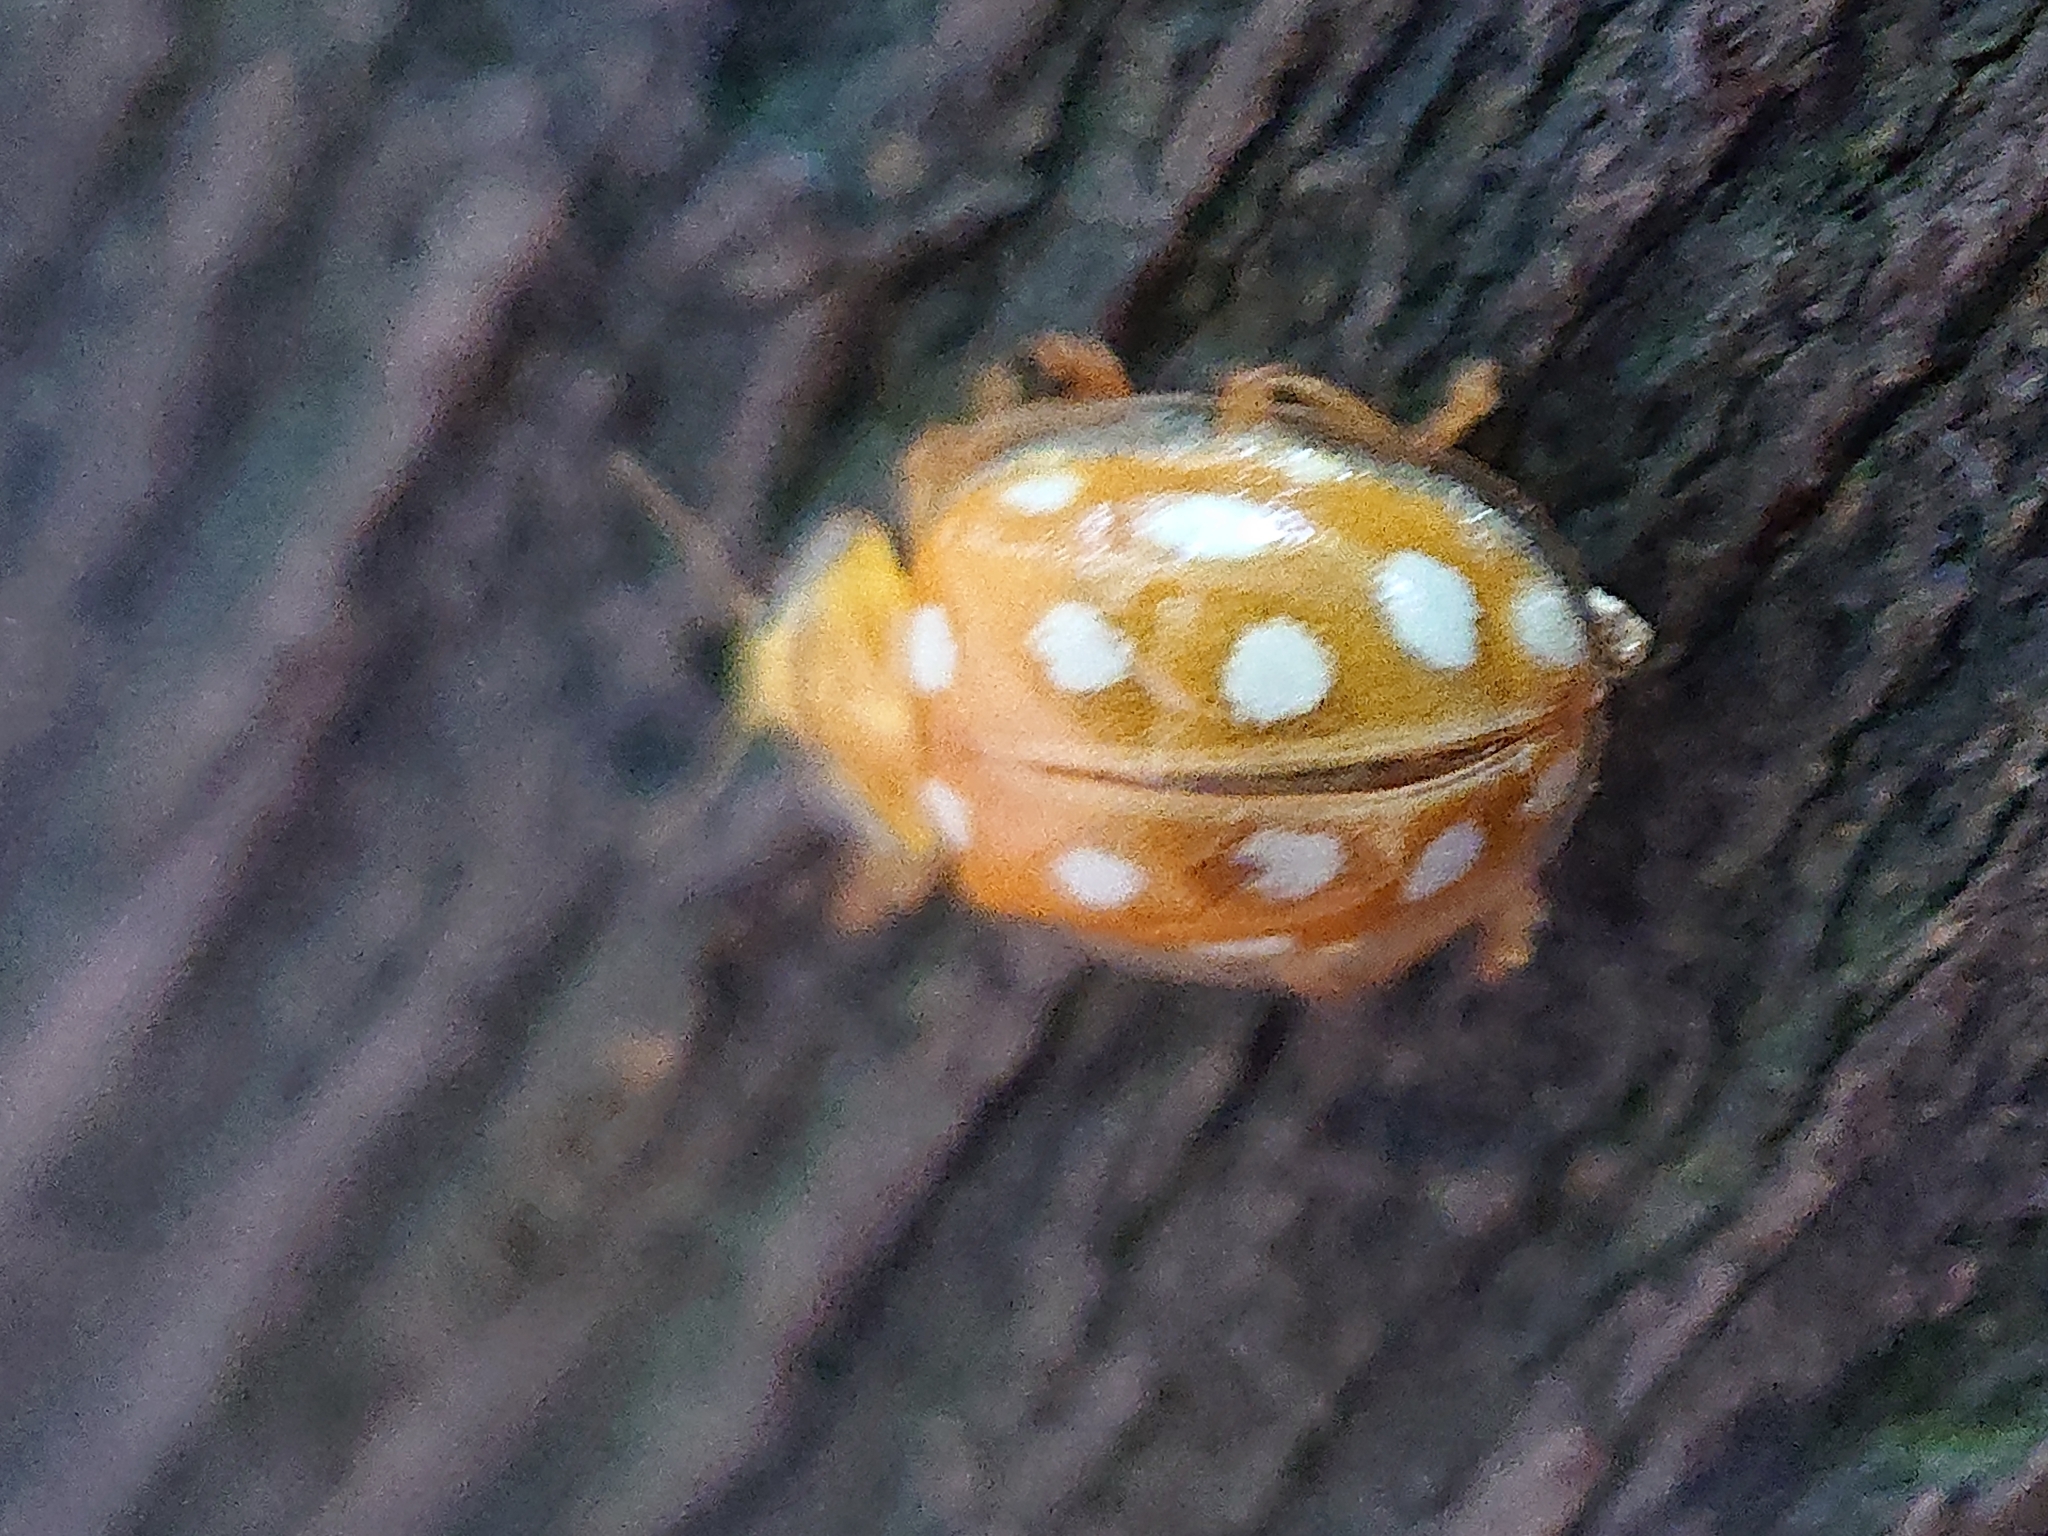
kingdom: Animalia
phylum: Arthropoda
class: Insecta
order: Coleoptera
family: Coccinellidae
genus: Halyzia
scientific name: Halyzia sedecimguttata
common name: Orange ladybird
